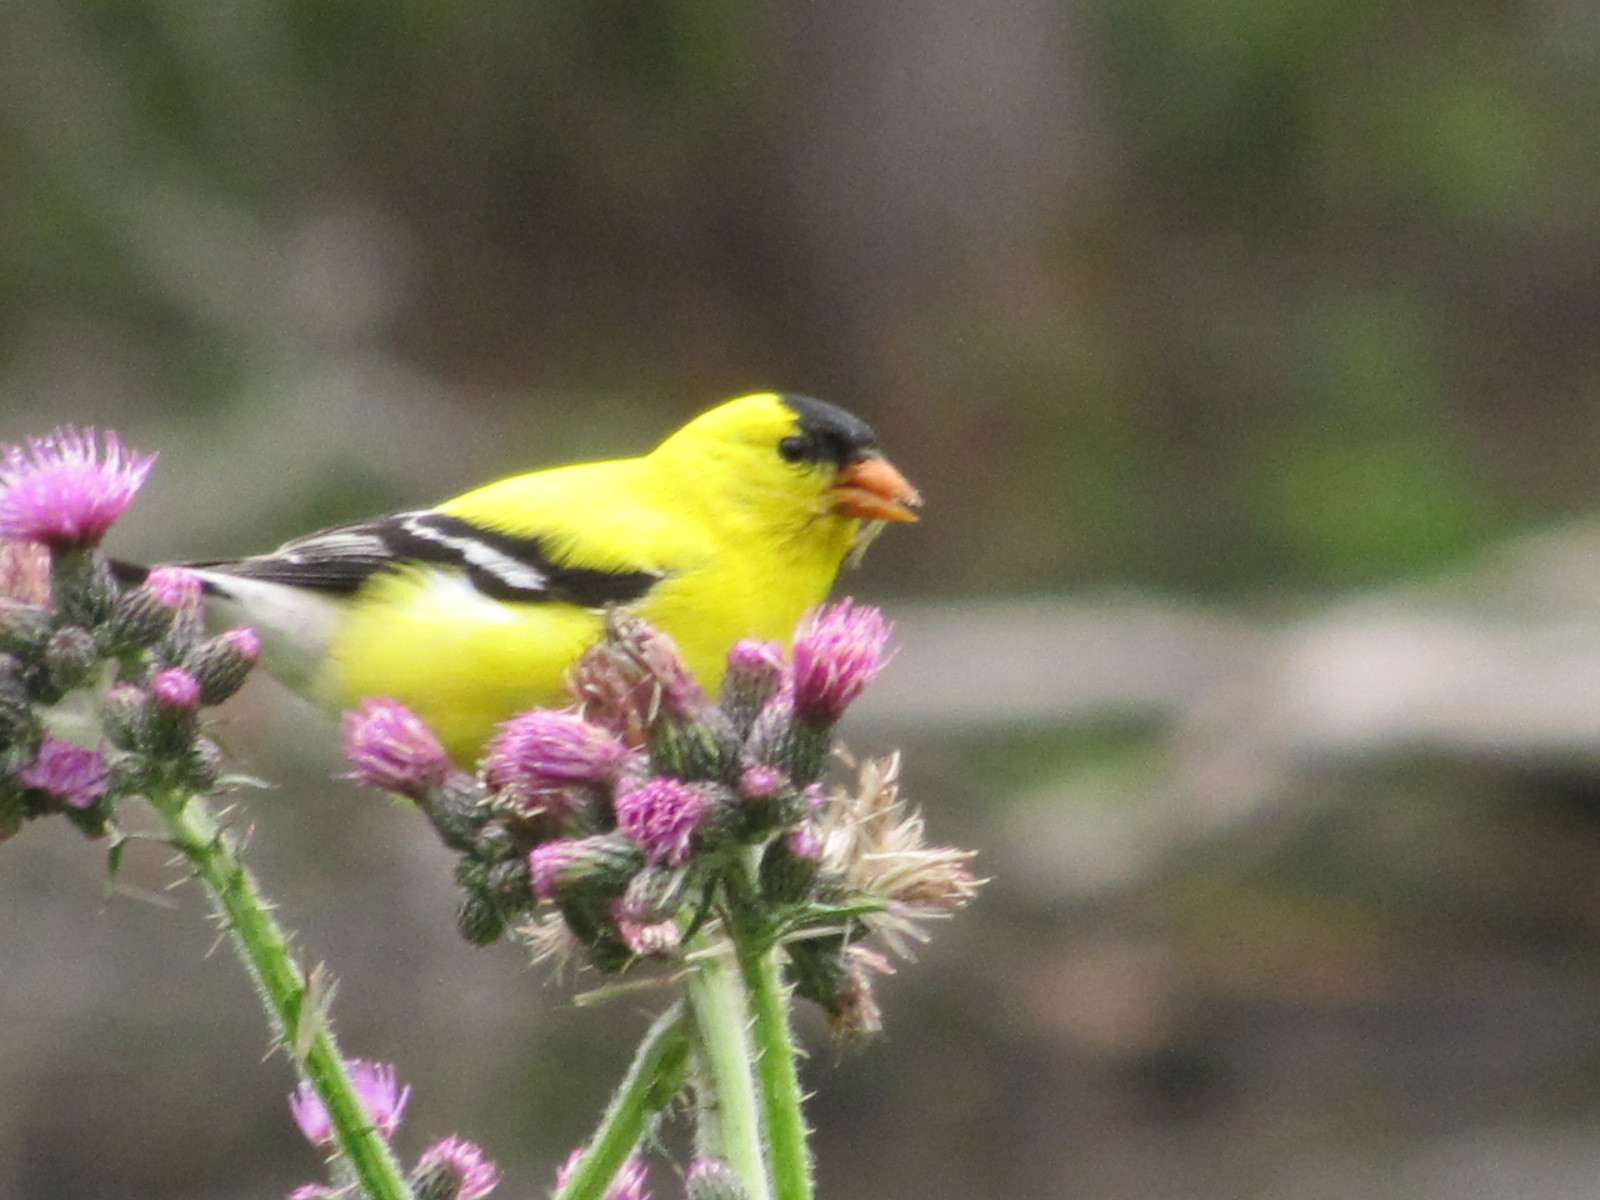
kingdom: Animalia
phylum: Chordata
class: Aves
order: Passeriformes
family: Fringillidae
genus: Spinus
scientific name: Spinus tristis
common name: American goldfinch
